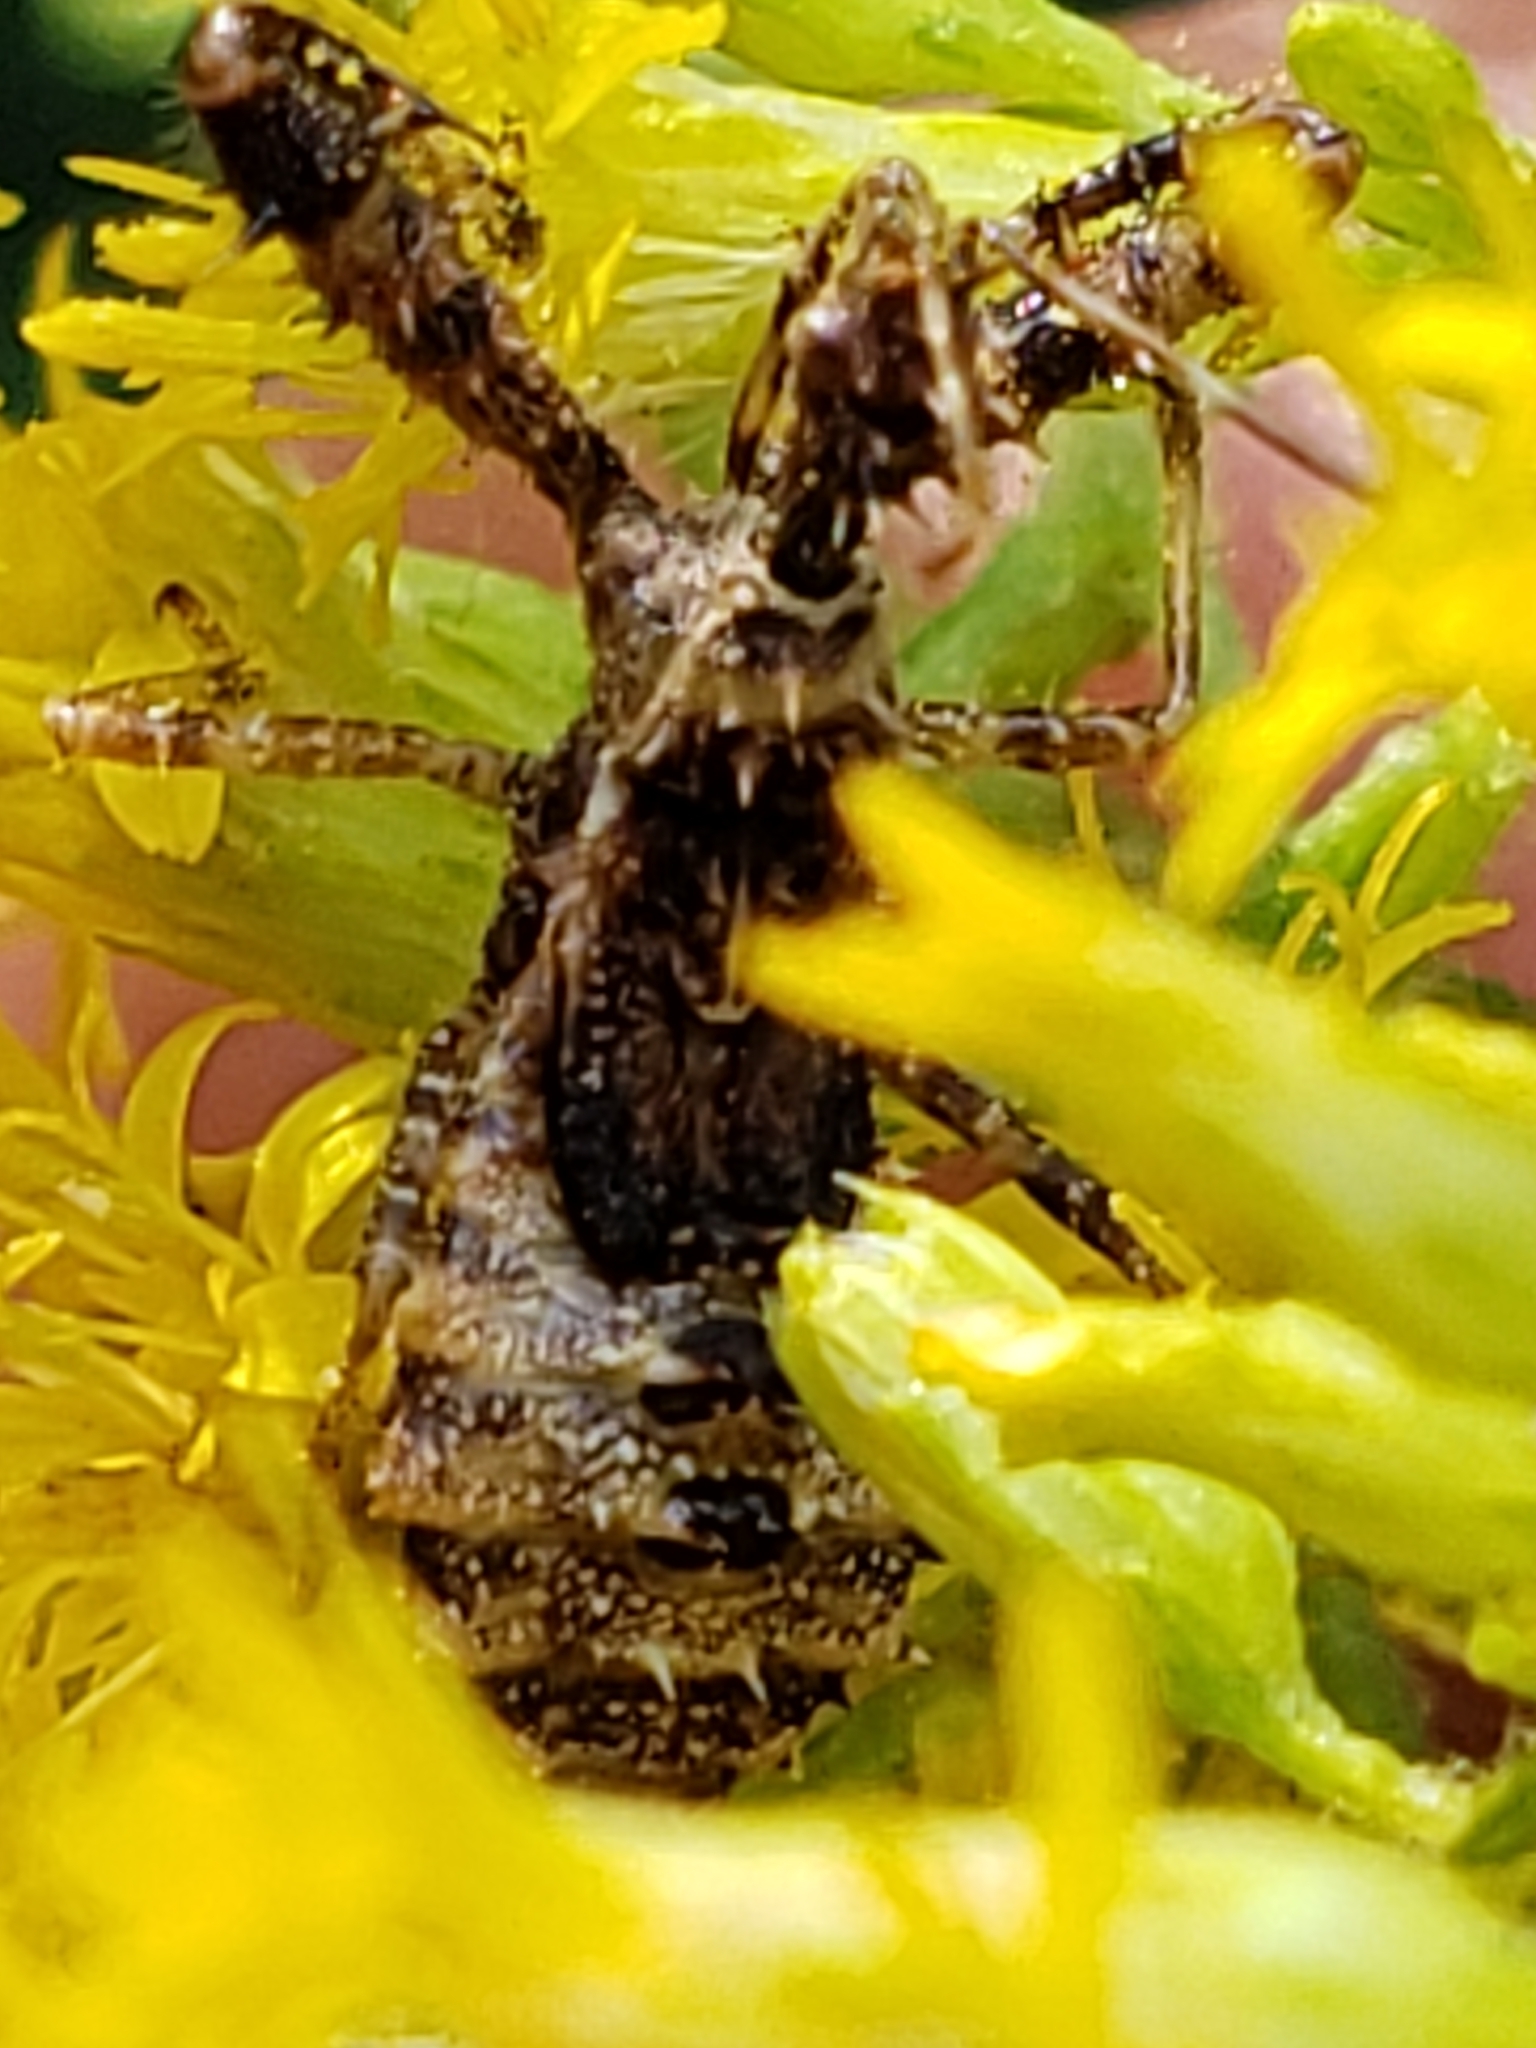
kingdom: Animalia
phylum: Arthropoda
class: Insecta
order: Hemiptera
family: Reduviidae
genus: Sinea
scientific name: Sinea diadema
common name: Spined assassin bug
